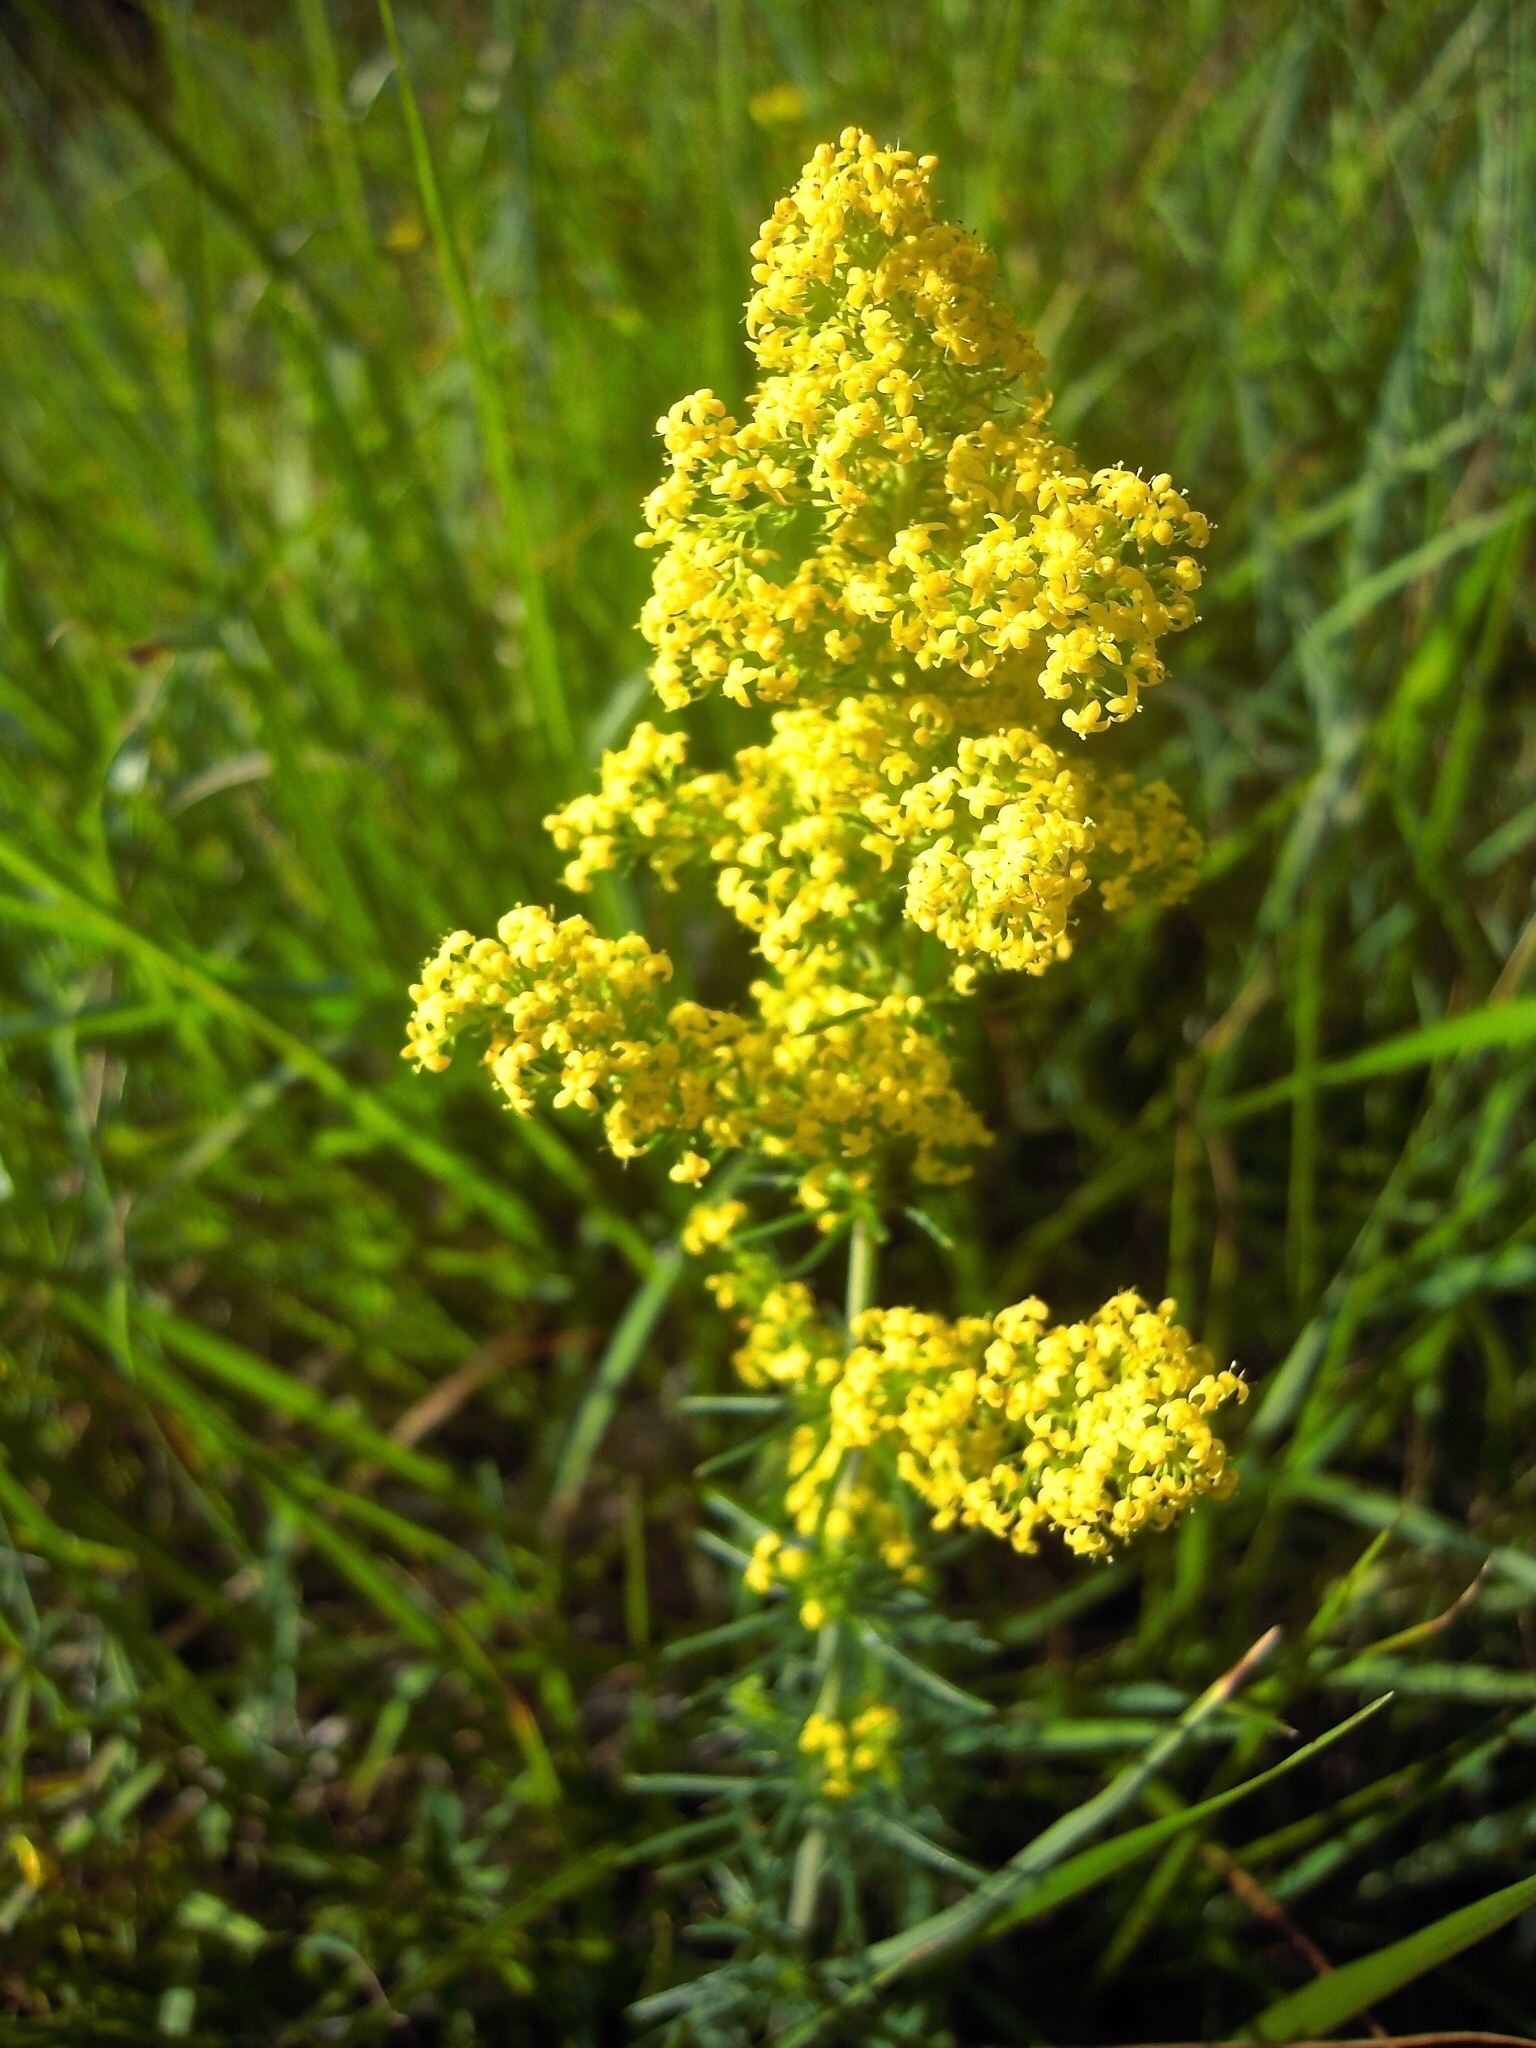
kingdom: Plantae
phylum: Tracheophyta
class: Magnoliopsida
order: Gentianales
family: Rubiaceae
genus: Galium
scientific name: Galium verum
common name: Lady's bedstraw
